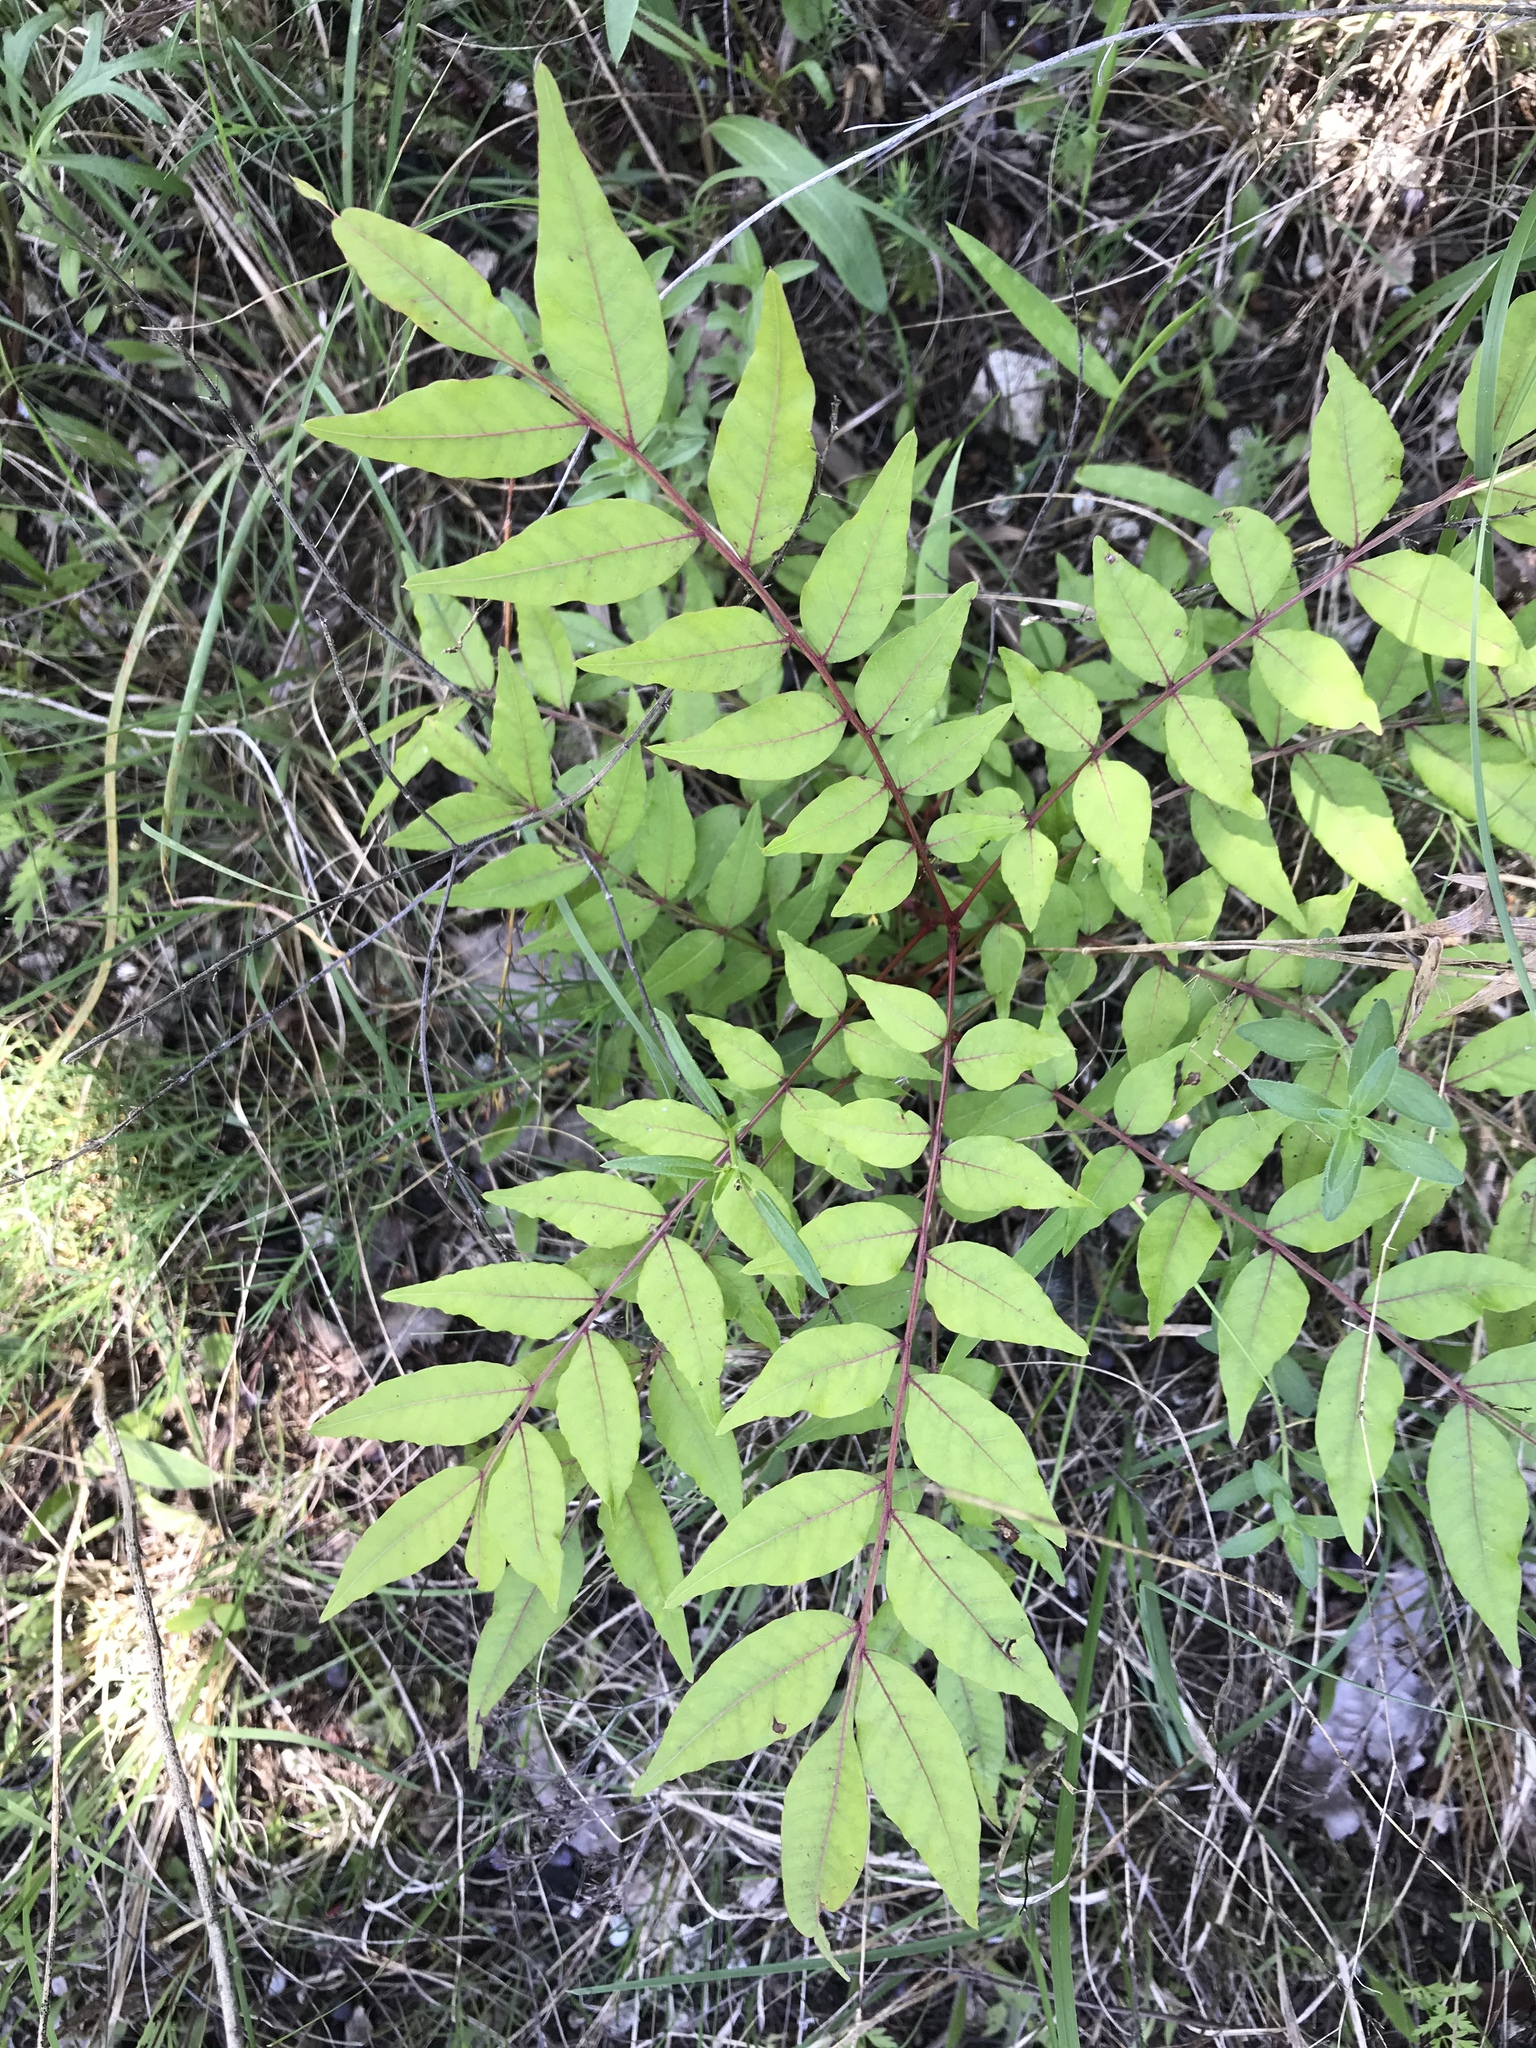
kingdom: Plantae
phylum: Tracheophyta
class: Magnoliopsida
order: Sapindales
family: Anacardiaceae
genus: Pistacia
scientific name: Pistacia chinensis
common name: Chinese pistache
